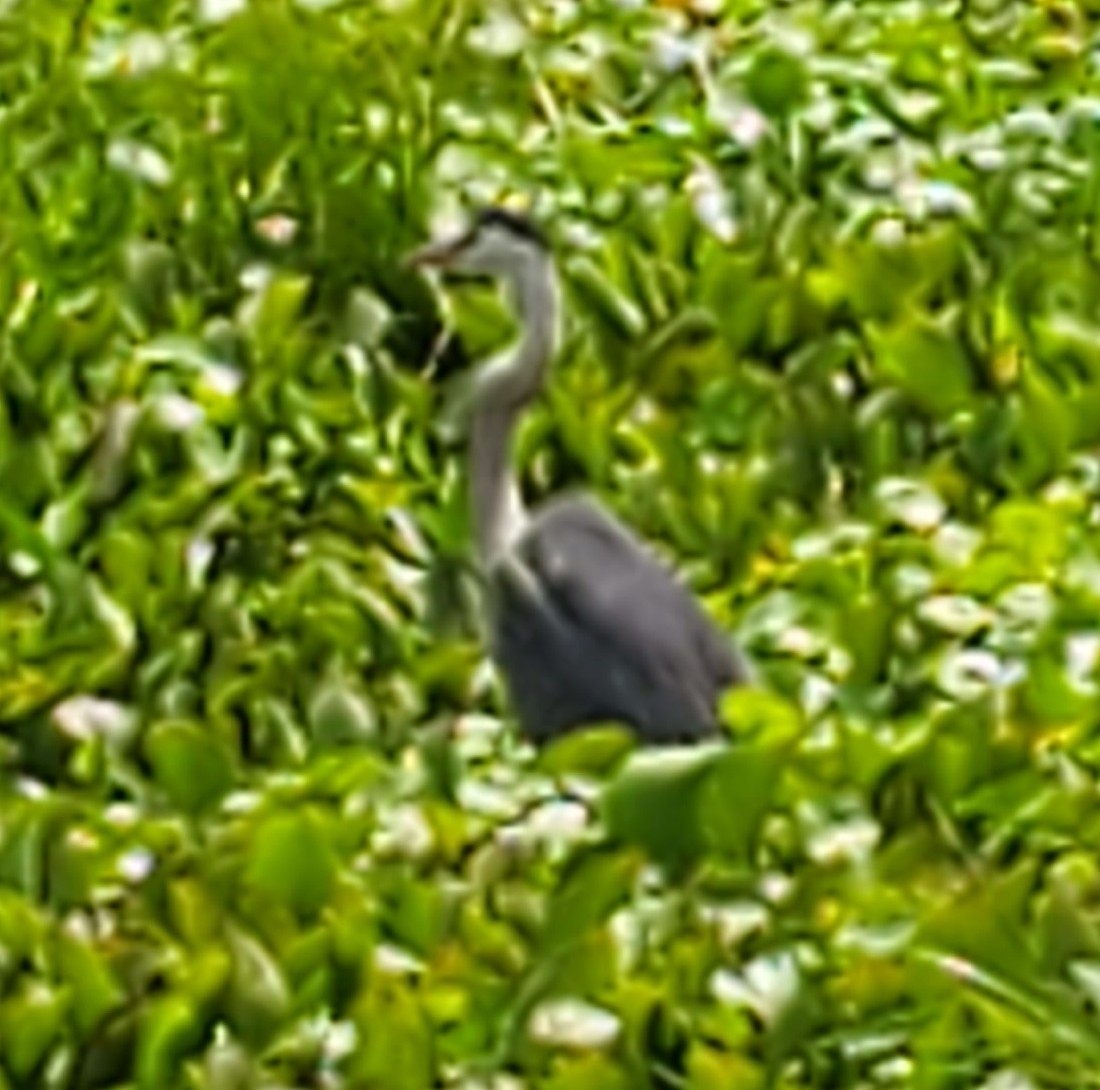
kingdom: Animalia
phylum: Chordata
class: Aves
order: Pelecaniformes
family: Ardeidae
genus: Ardea
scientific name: Ardea herodias
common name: Great blue heron
